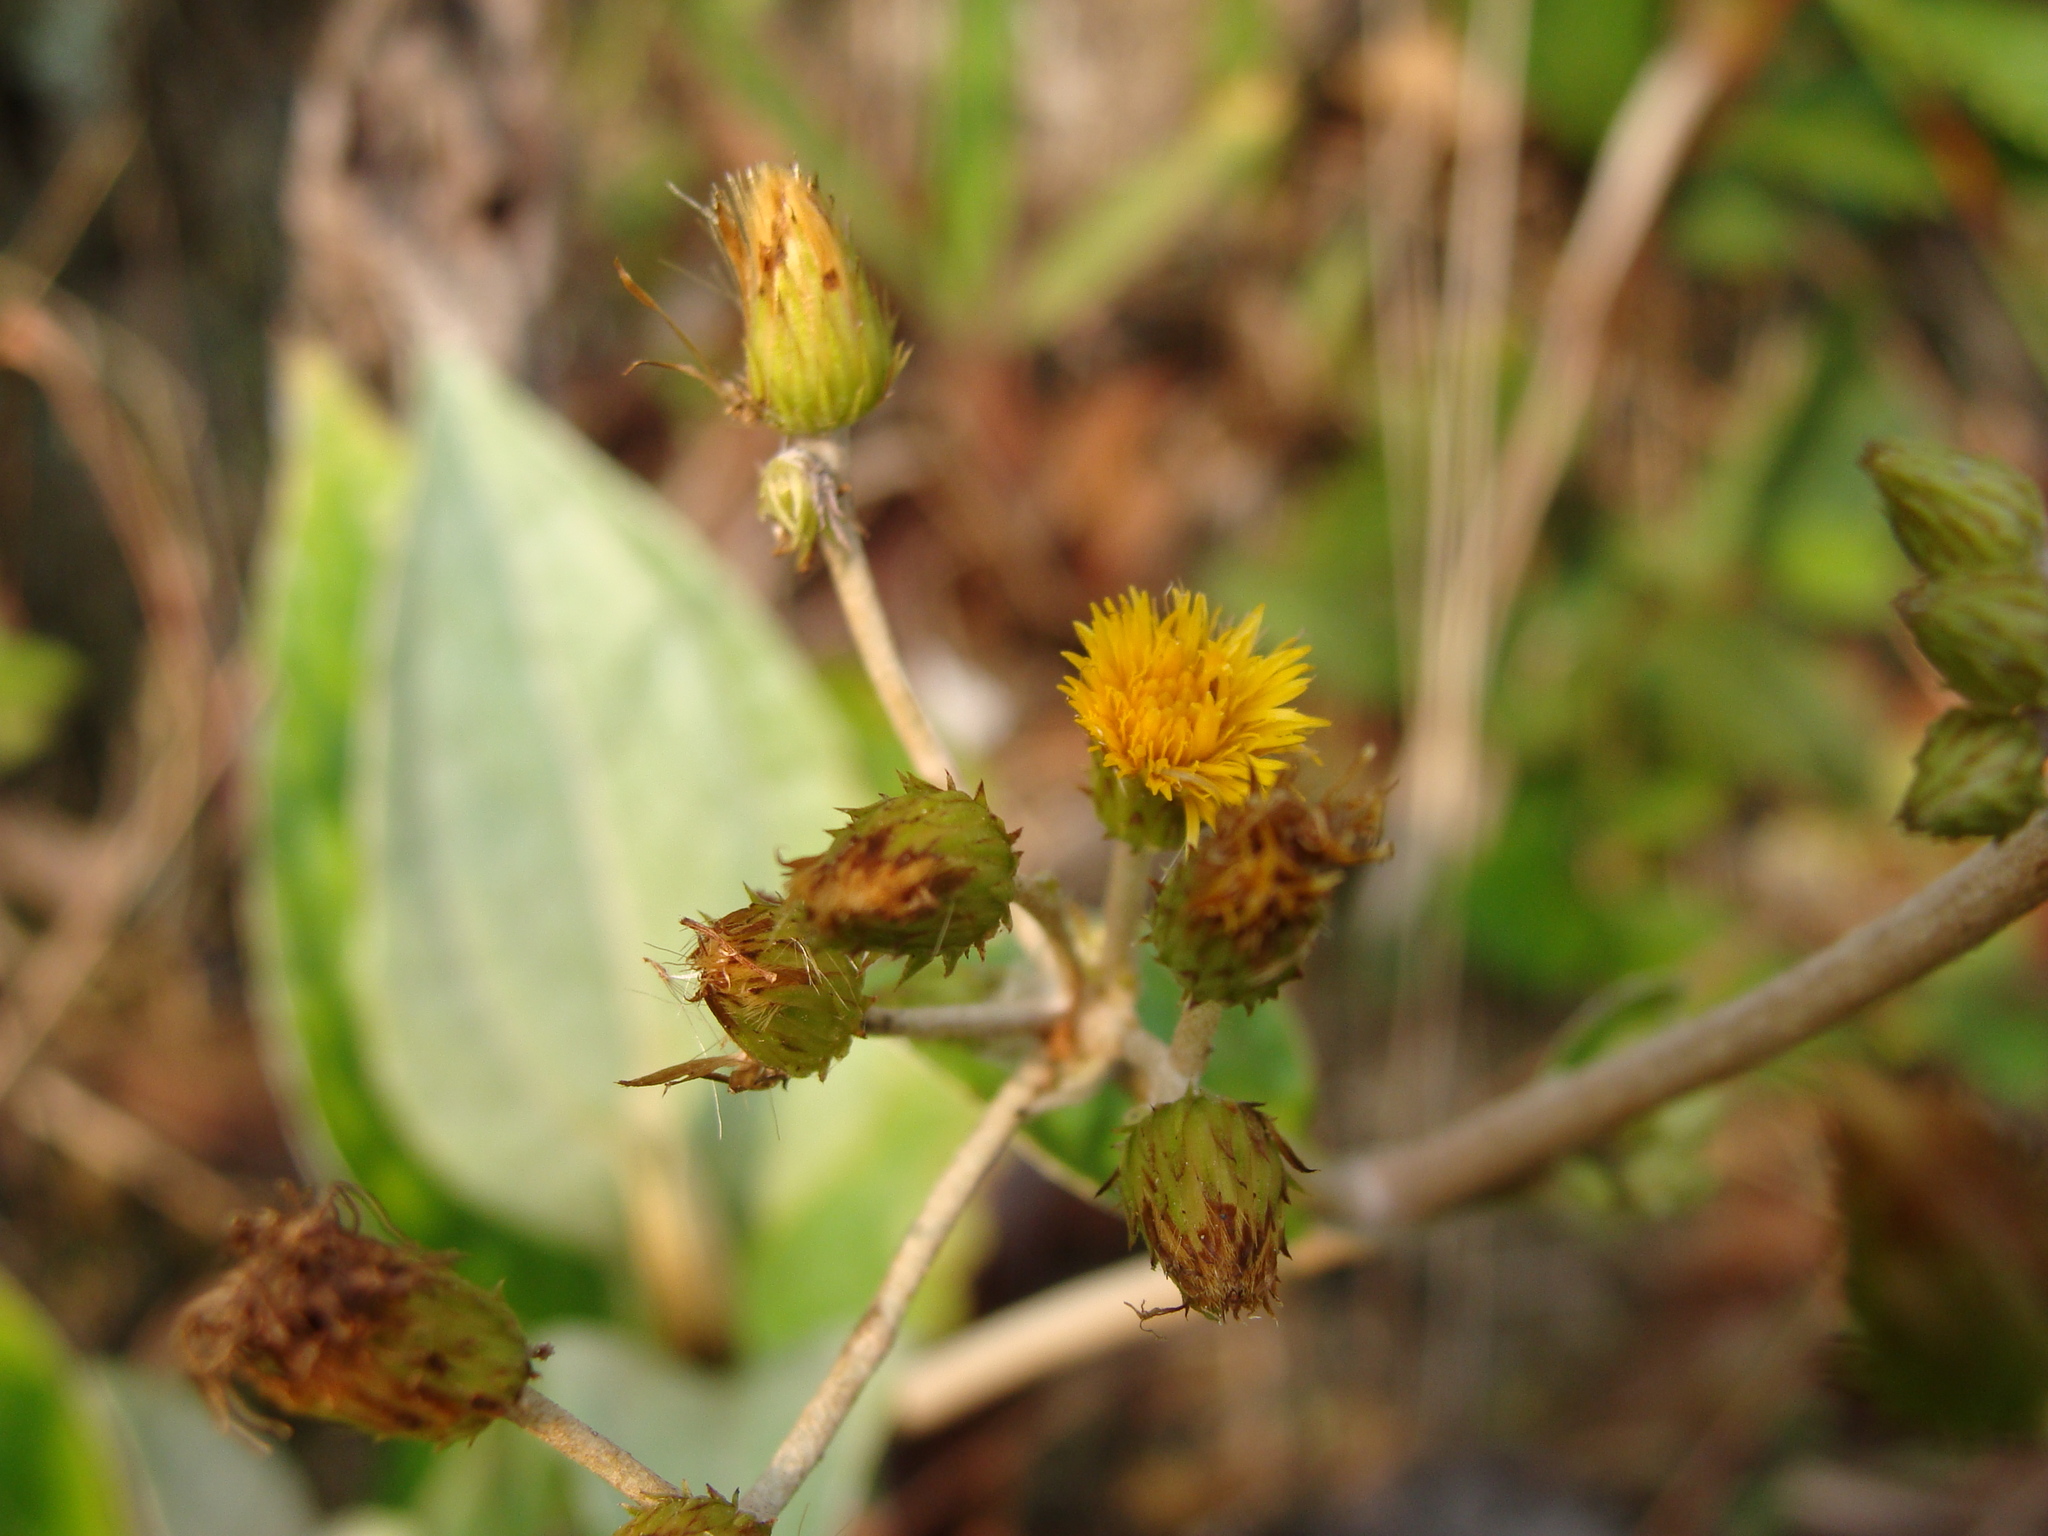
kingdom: Plantae
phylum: Tracheophyta
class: Magnoliopsida
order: Asterales
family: Asteraceae
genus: Liabum
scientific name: Liabum asclepiadeum
